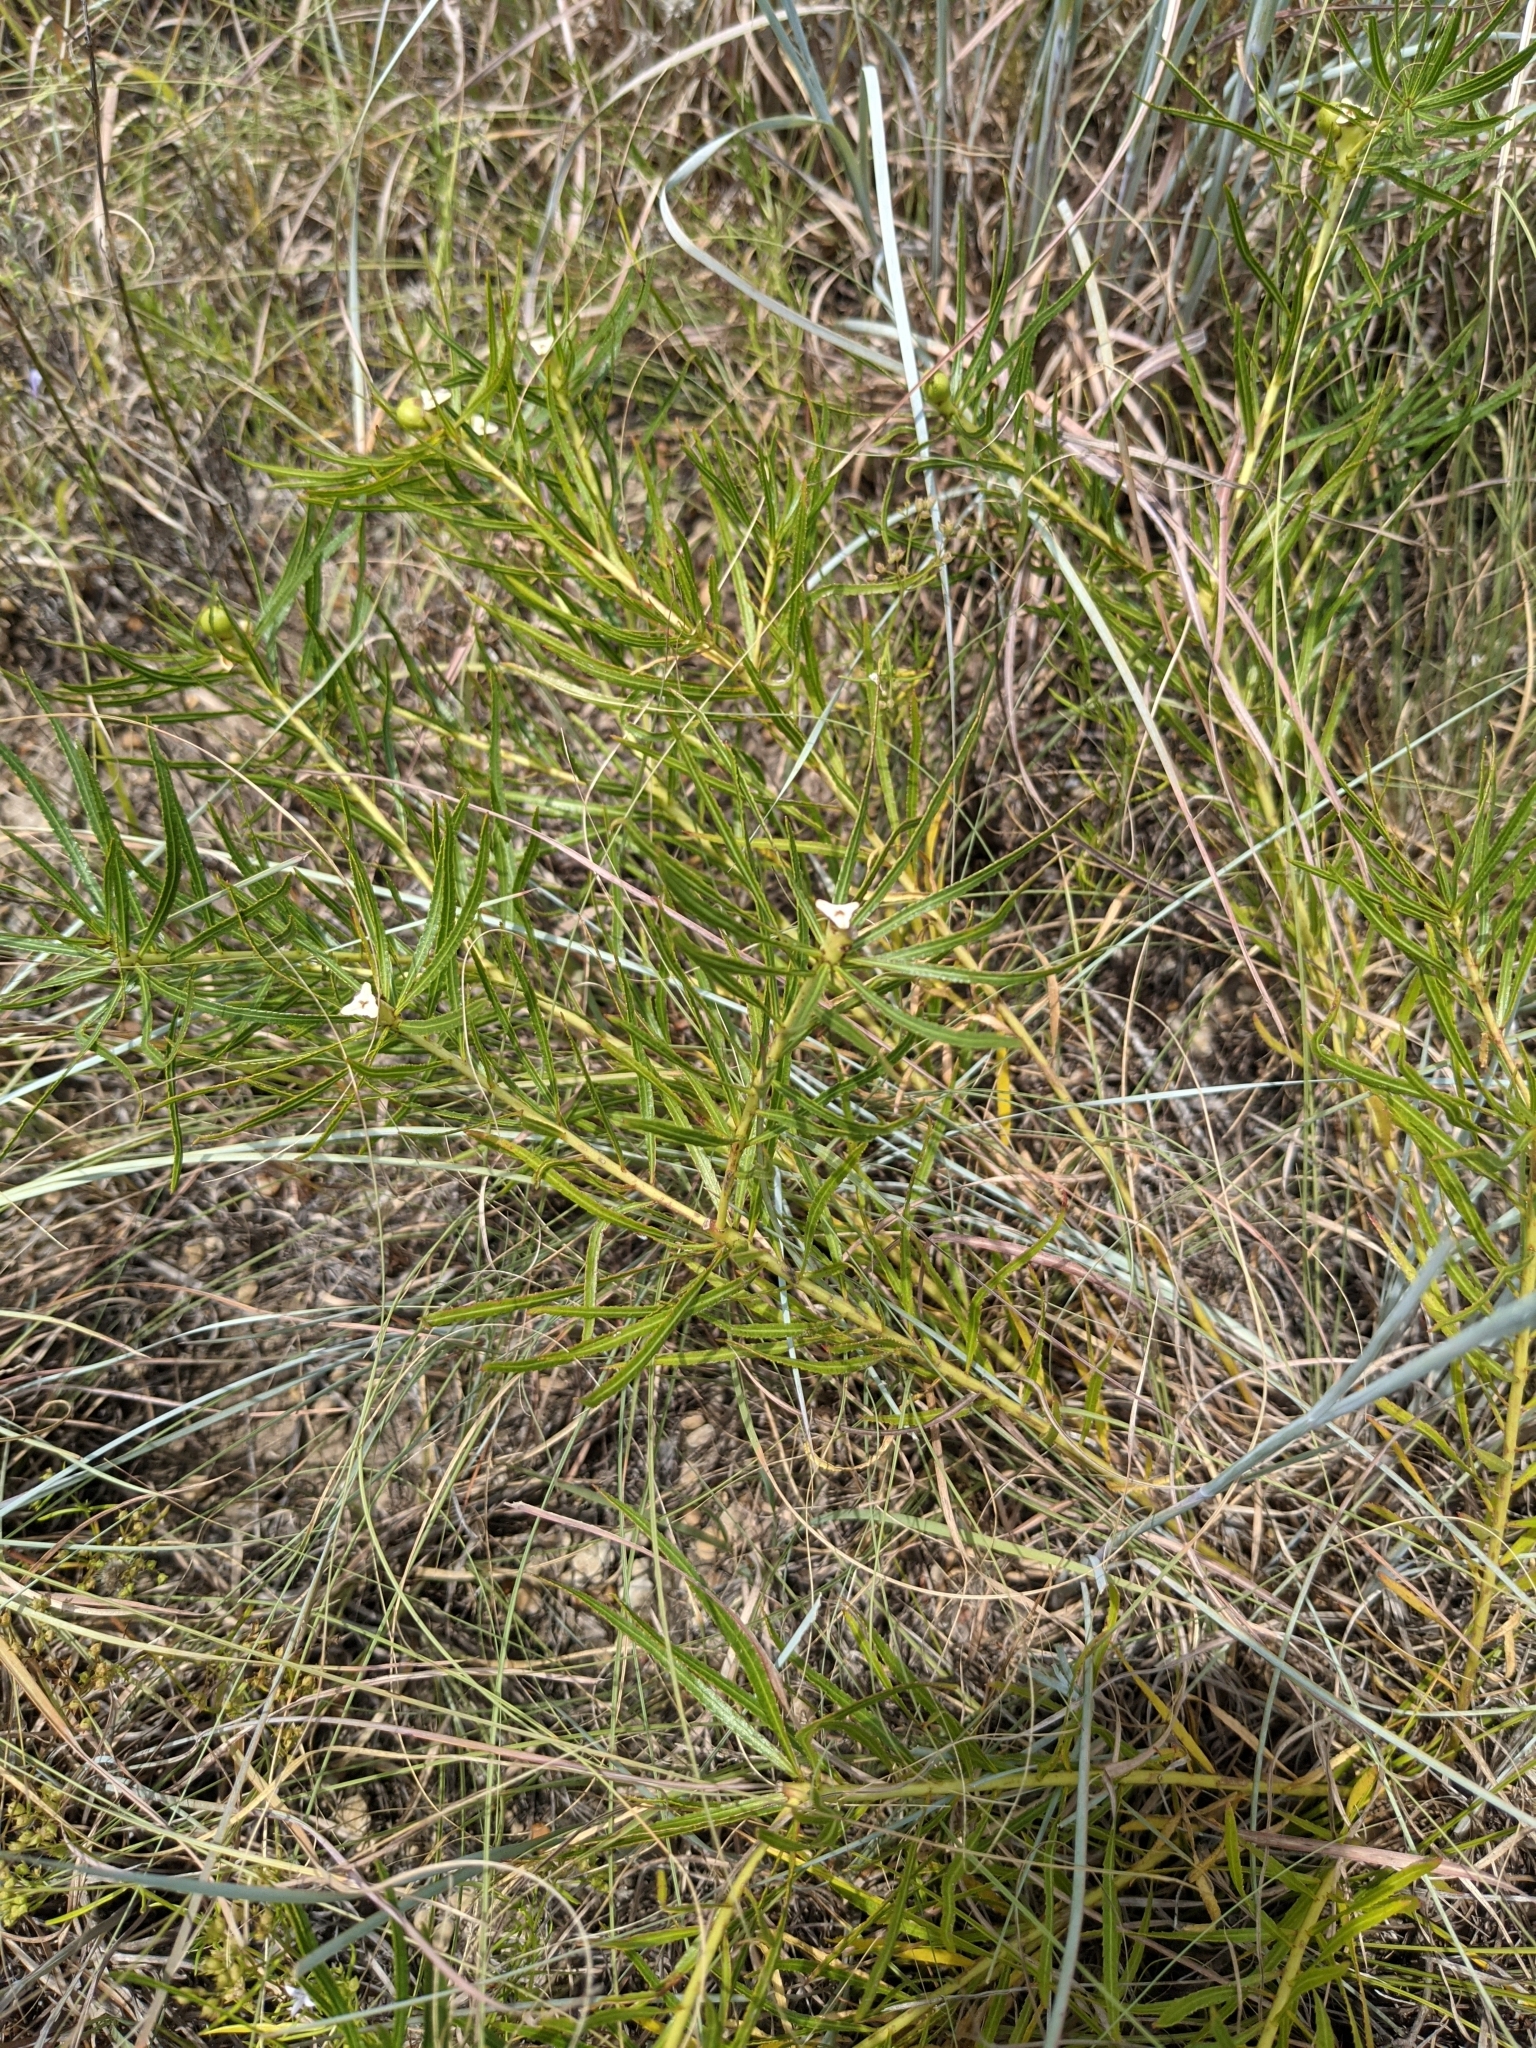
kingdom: Plantae
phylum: Tracheophyta
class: Magnoliopsida
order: Malpighiales
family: Euphorbiaceae
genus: Stillingia
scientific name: Stillingia texana
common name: Texas stillingia
